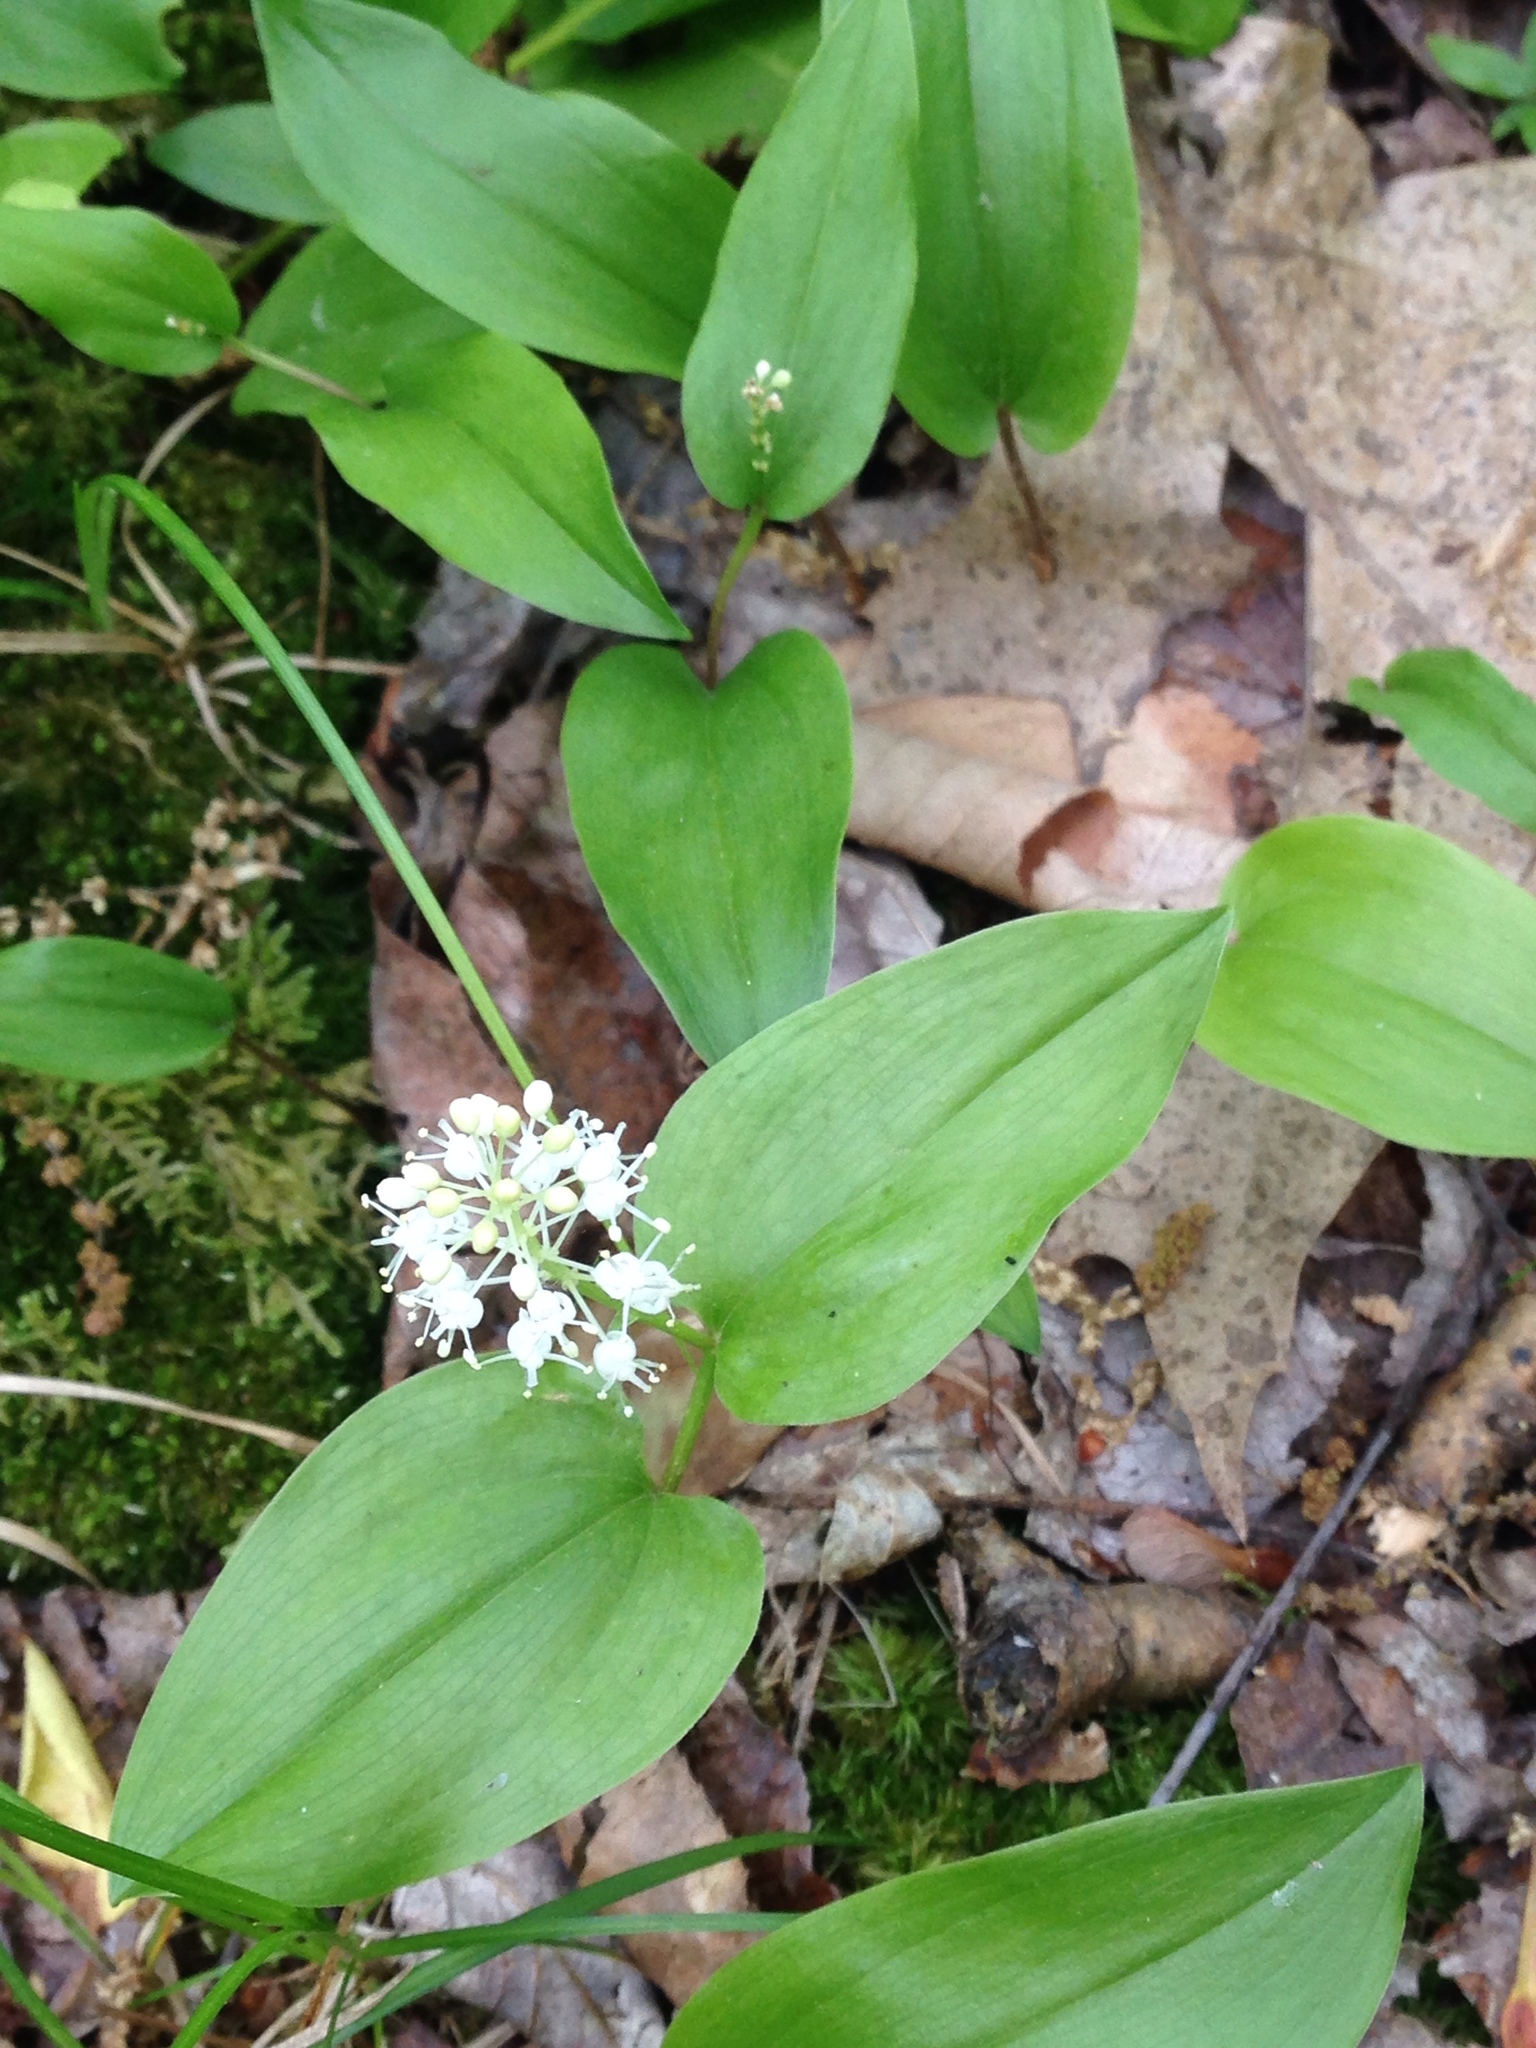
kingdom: Plantae
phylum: Tracheophyta
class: Liliopsida
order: Asparagales
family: Asparagaceae
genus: Maianthemum
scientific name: Maianthemum canadense
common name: False lily-of-the-valley
